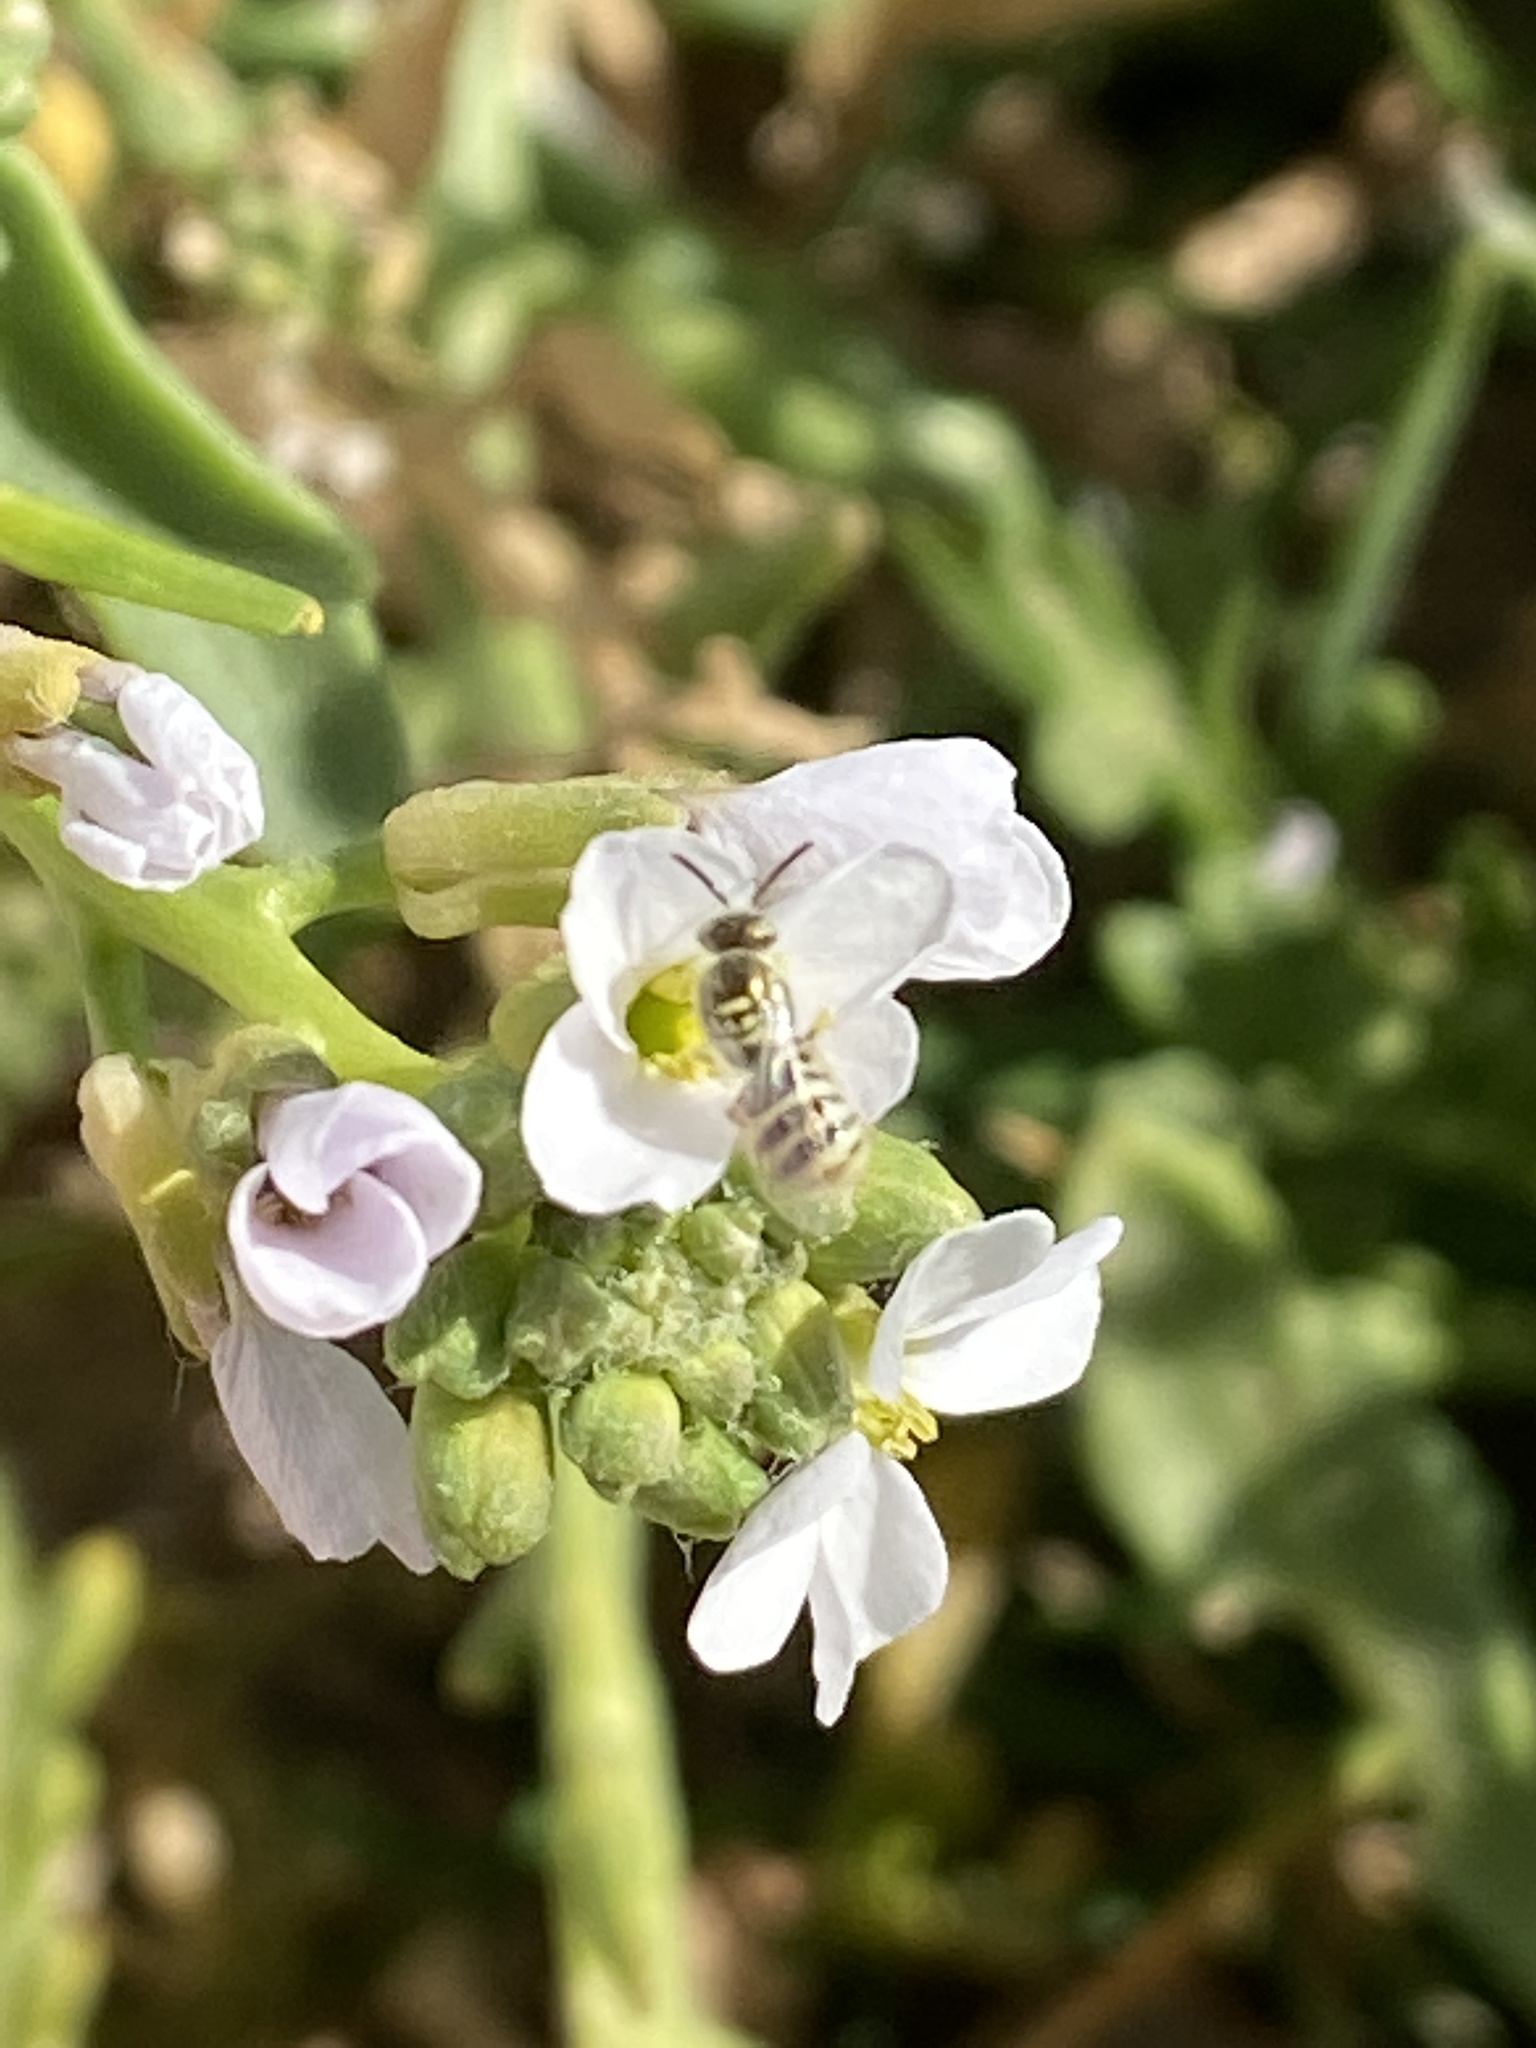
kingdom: Animalia
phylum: Arthropoda
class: Insecta
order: Hymenoptera
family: Halictidae
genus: Ceylalictus
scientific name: Ceylalictus variegatus
